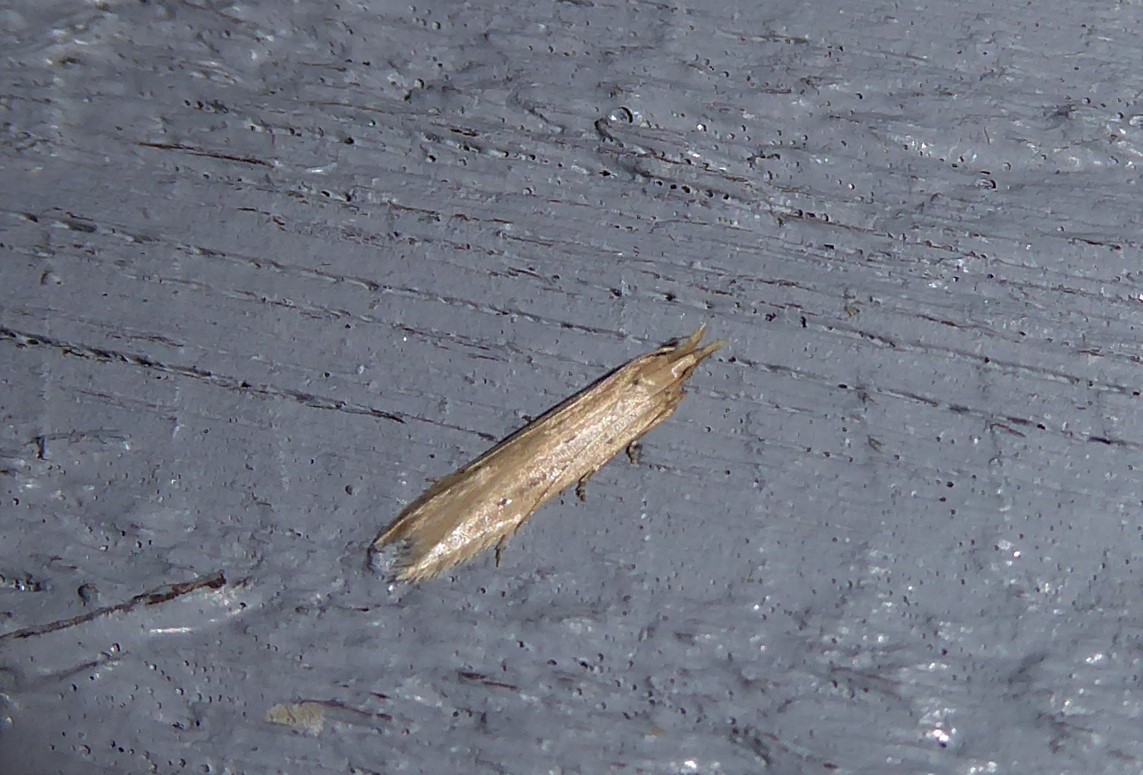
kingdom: Animalia
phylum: Arthropoda
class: Insecta
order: Lepidoptera
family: Gelechiidae
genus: Epiphthora
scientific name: Epiphthora calamogonus
